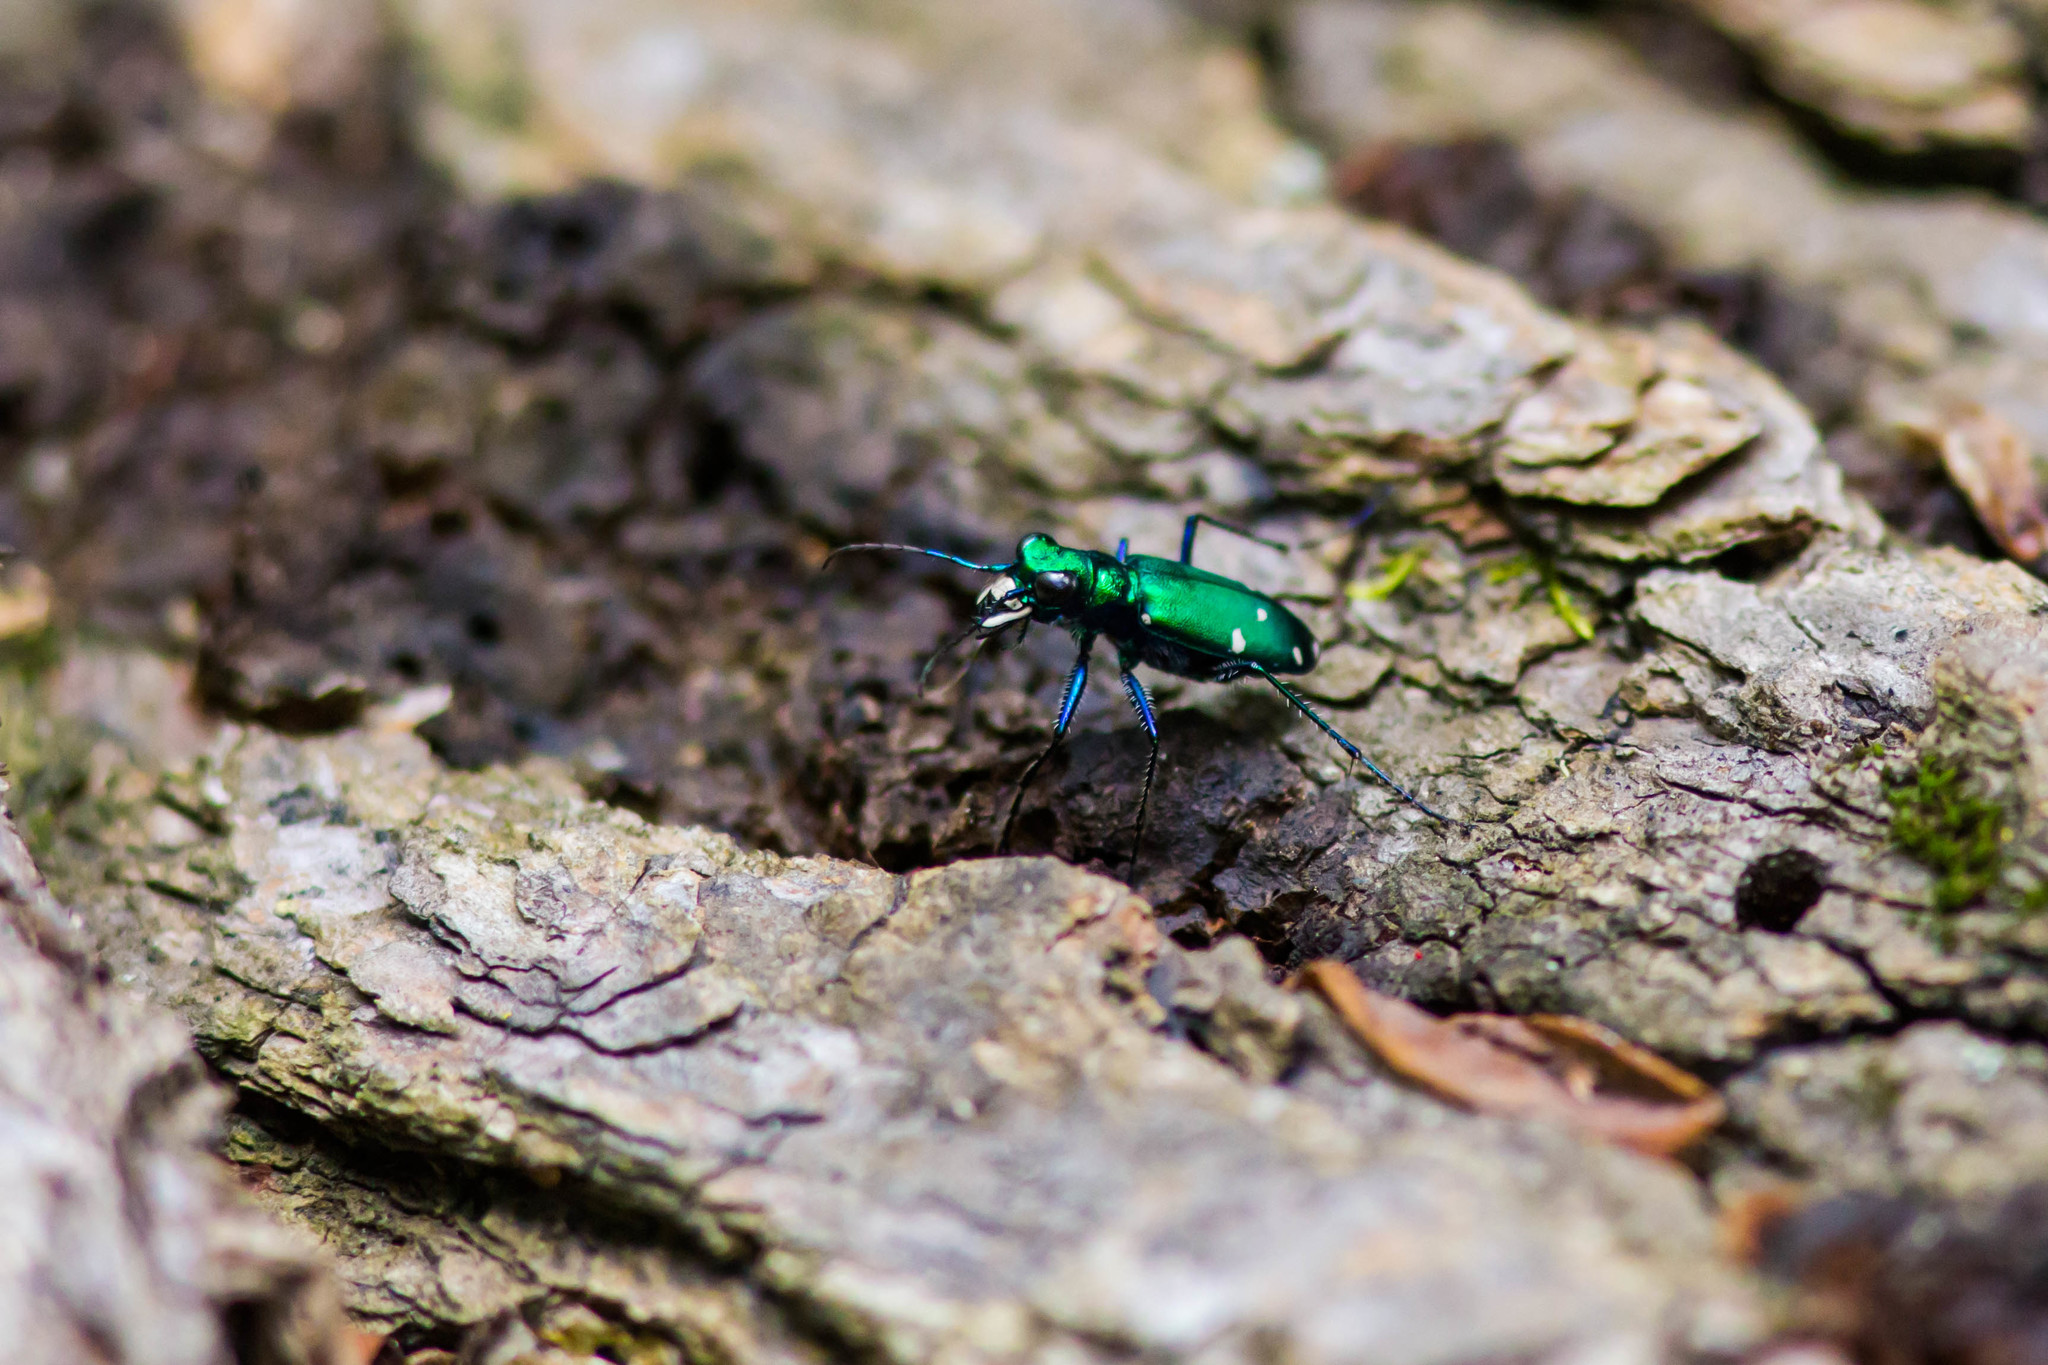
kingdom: Animalia
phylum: Arthropoda
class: Insecta
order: Coleoptera
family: Carabidae
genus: Cicindela
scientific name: Cicindela sexguttata
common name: Six-spotted tiger beetle
